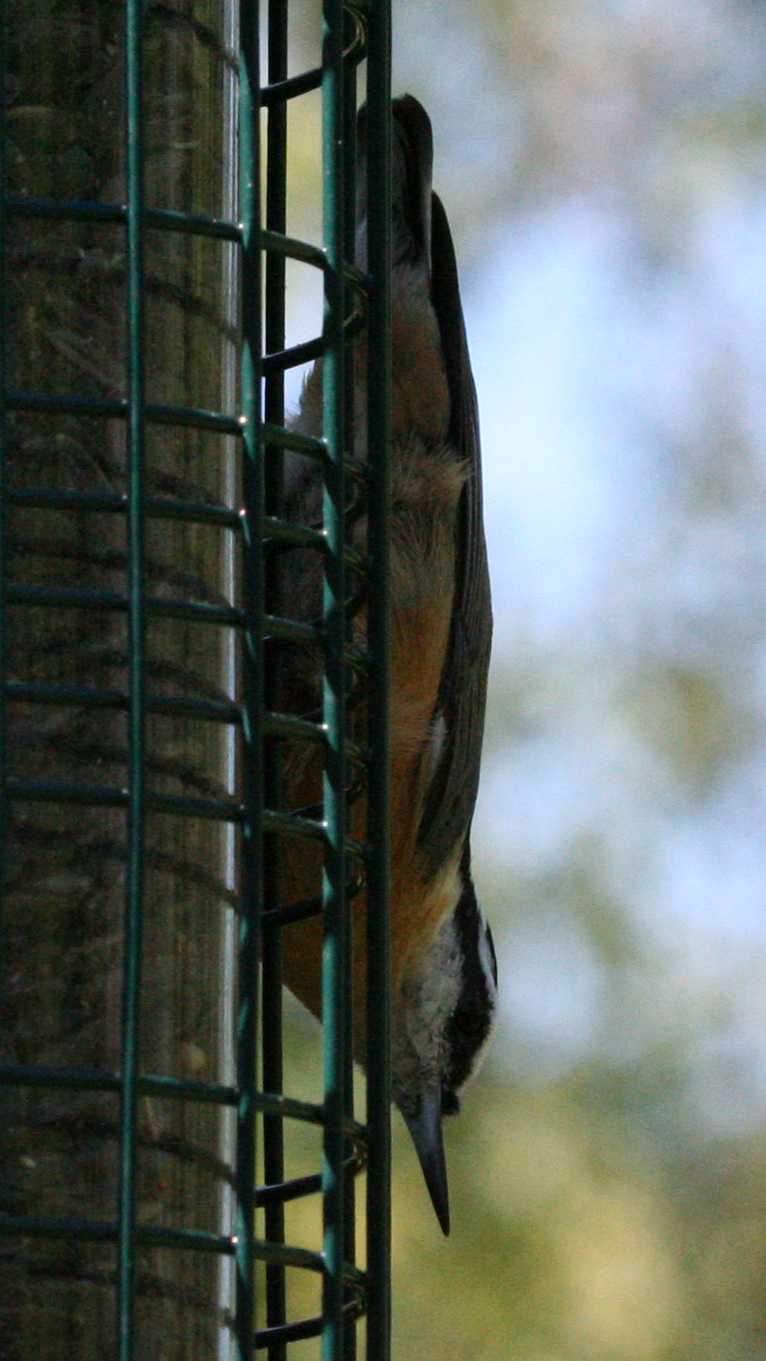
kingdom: Animalia
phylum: Chordata
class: Aves
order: Passeriformes
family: Sittidae
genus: Sitta
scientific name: Sitta canadensis
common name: Red-breasted nuthatch
